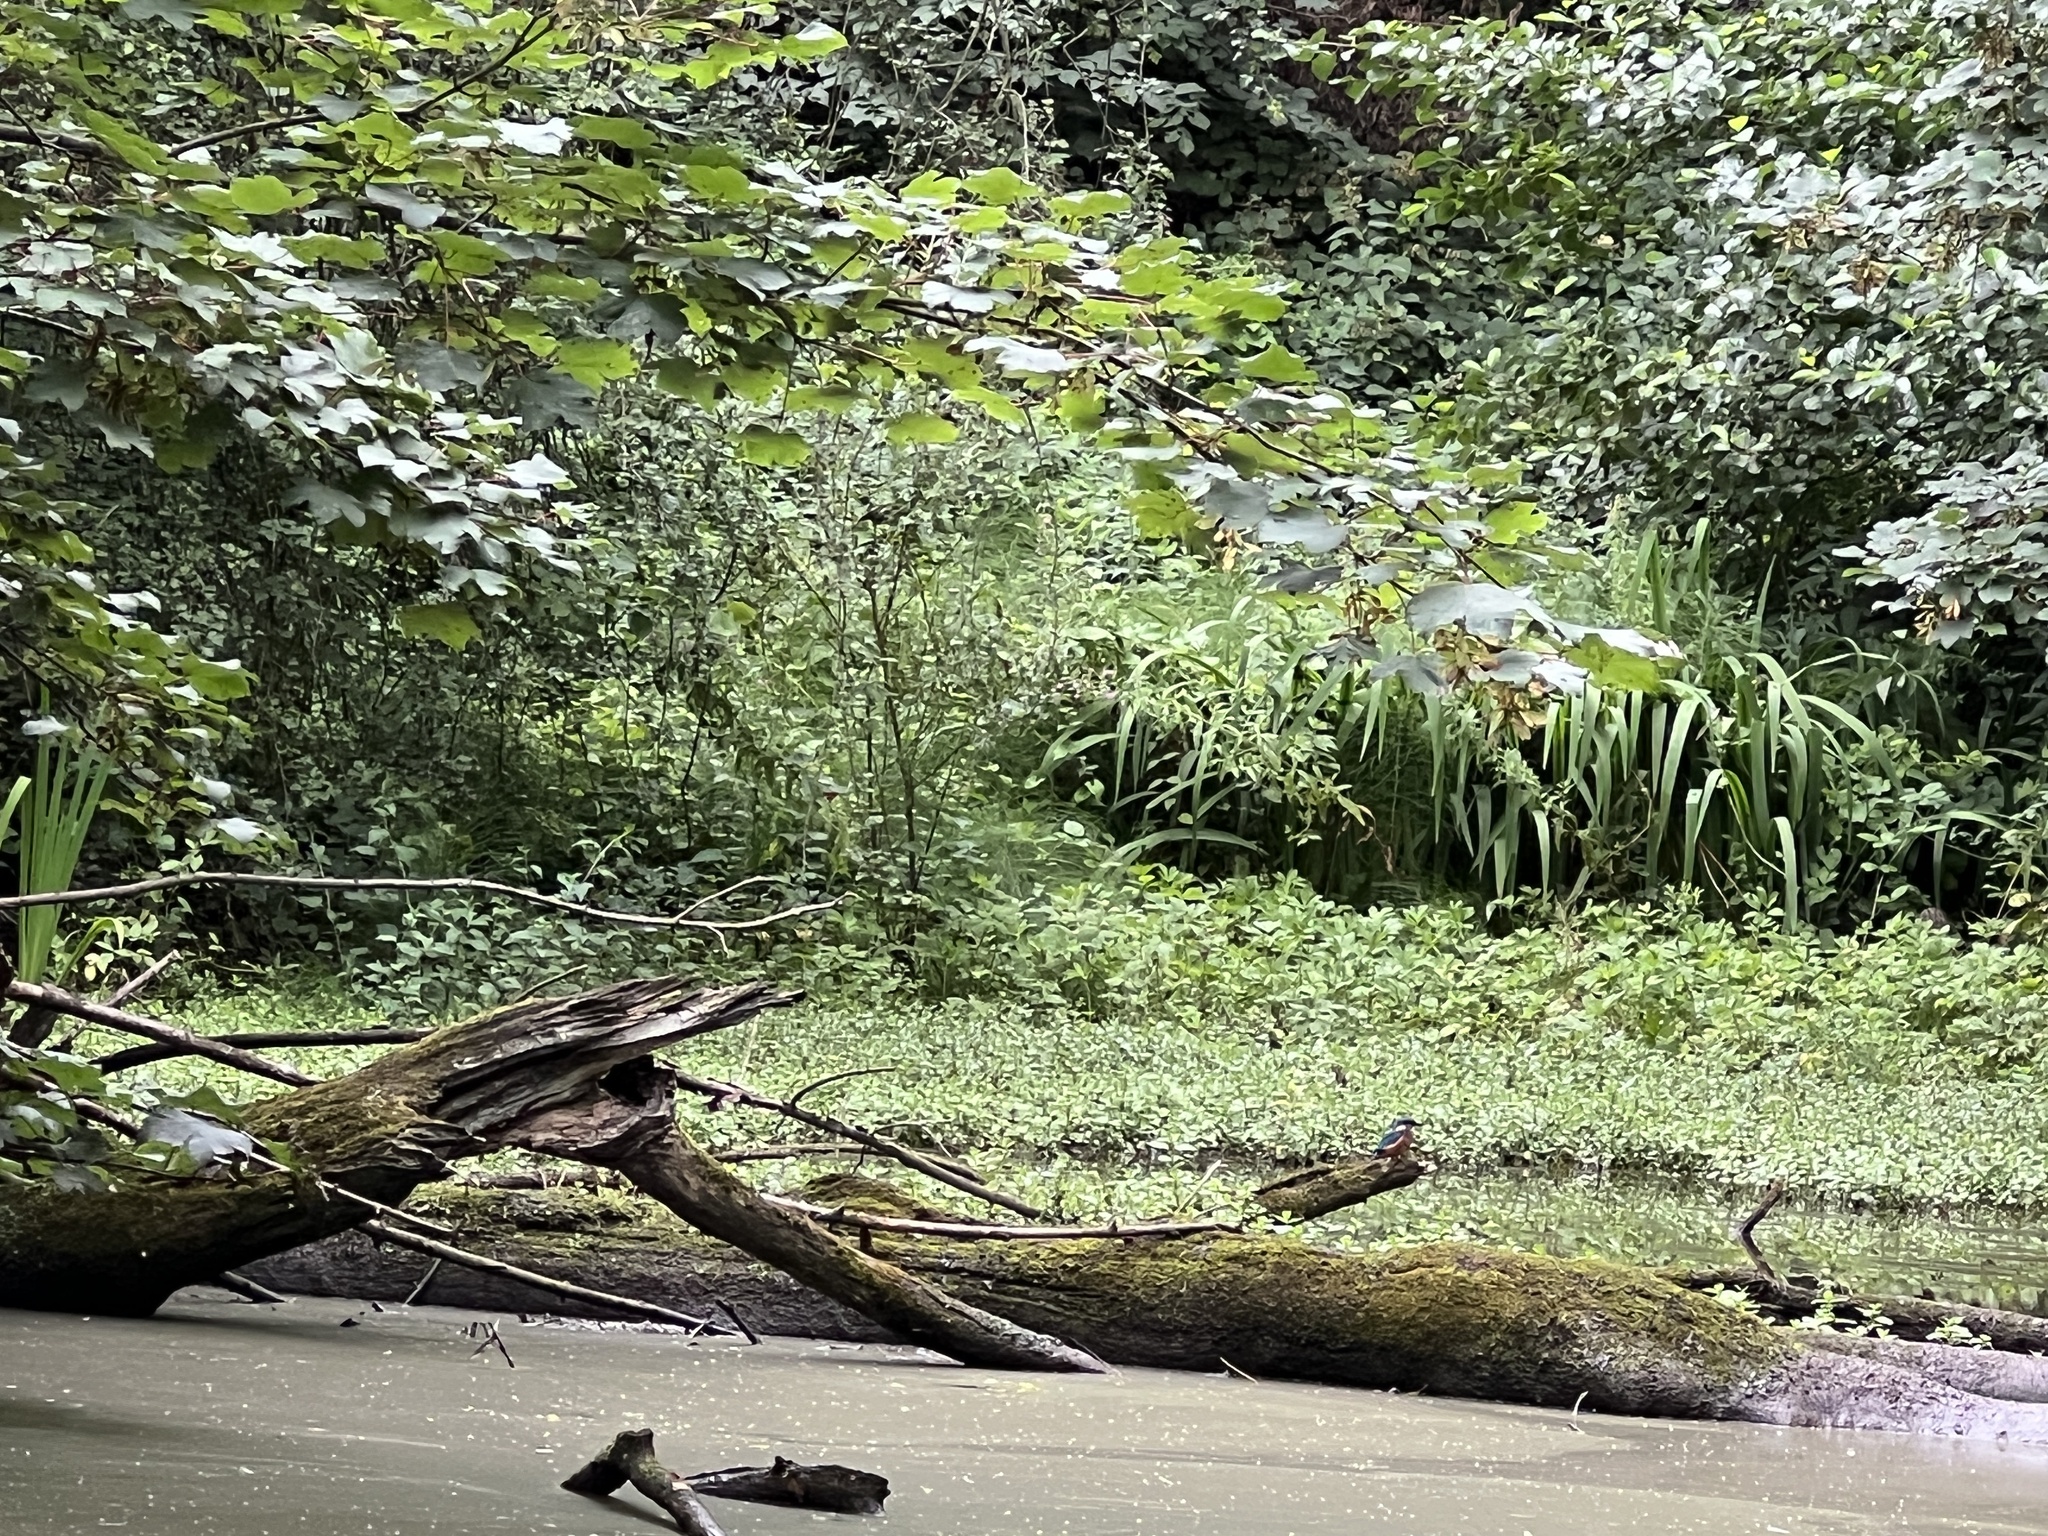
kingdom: Animalia
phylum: Chordata
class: Aves
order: Coraciiformes
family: Alcedinidae
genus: Alcedo
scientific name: Alcedo atthis
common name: Common kingfisher
